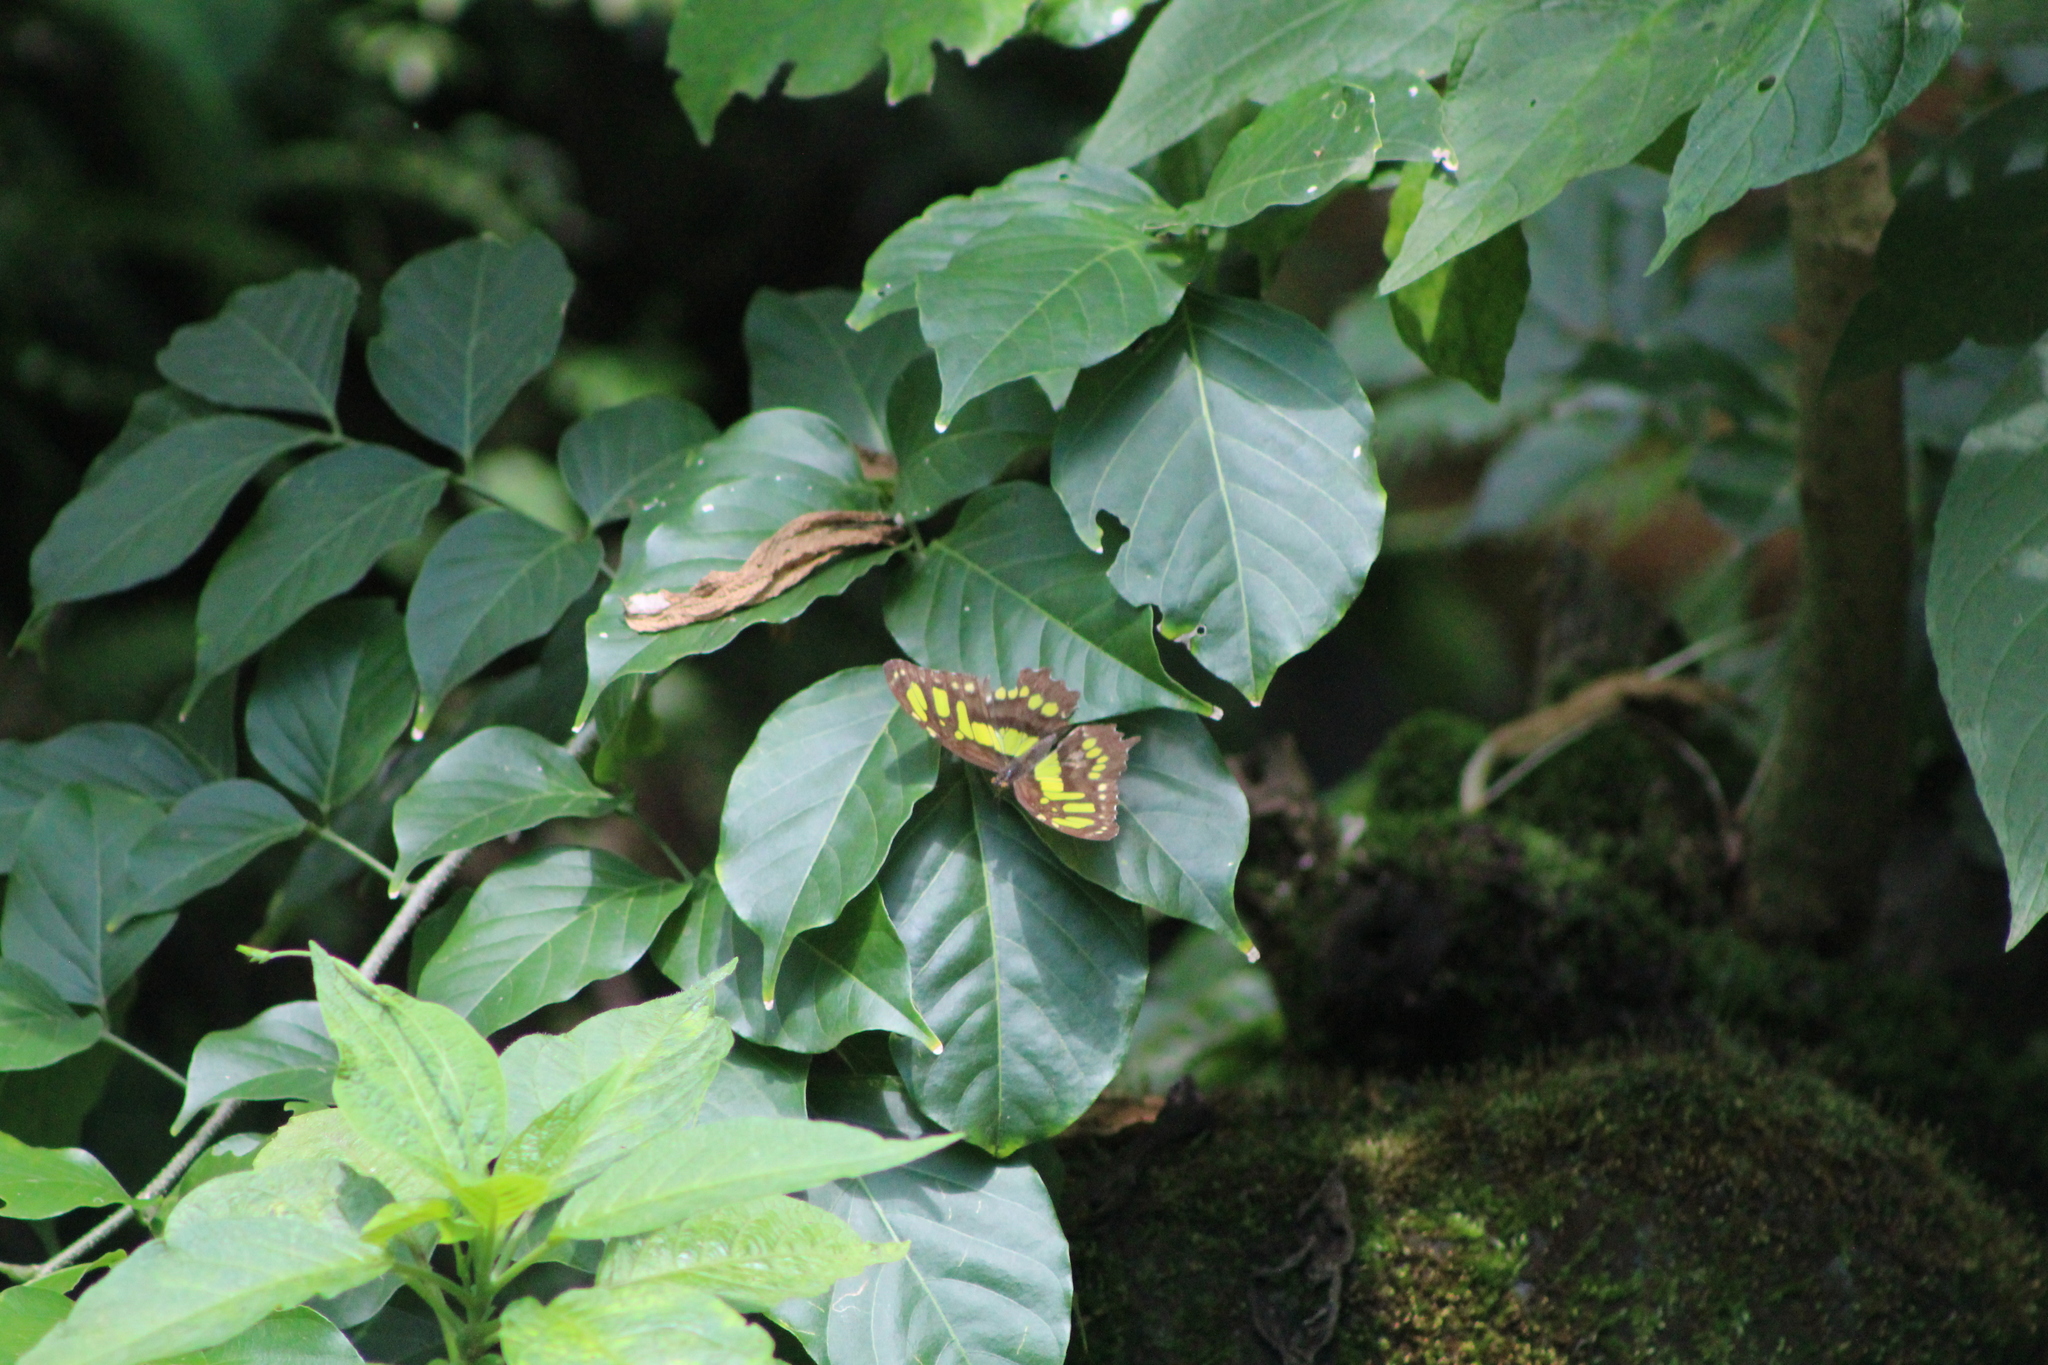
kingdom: Animalia
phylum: Arthropoda
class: Insecta
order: Lepidoptera
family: Nymphalidae
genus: Siproeta
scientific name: Siproeta stelenes
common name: Malachite
